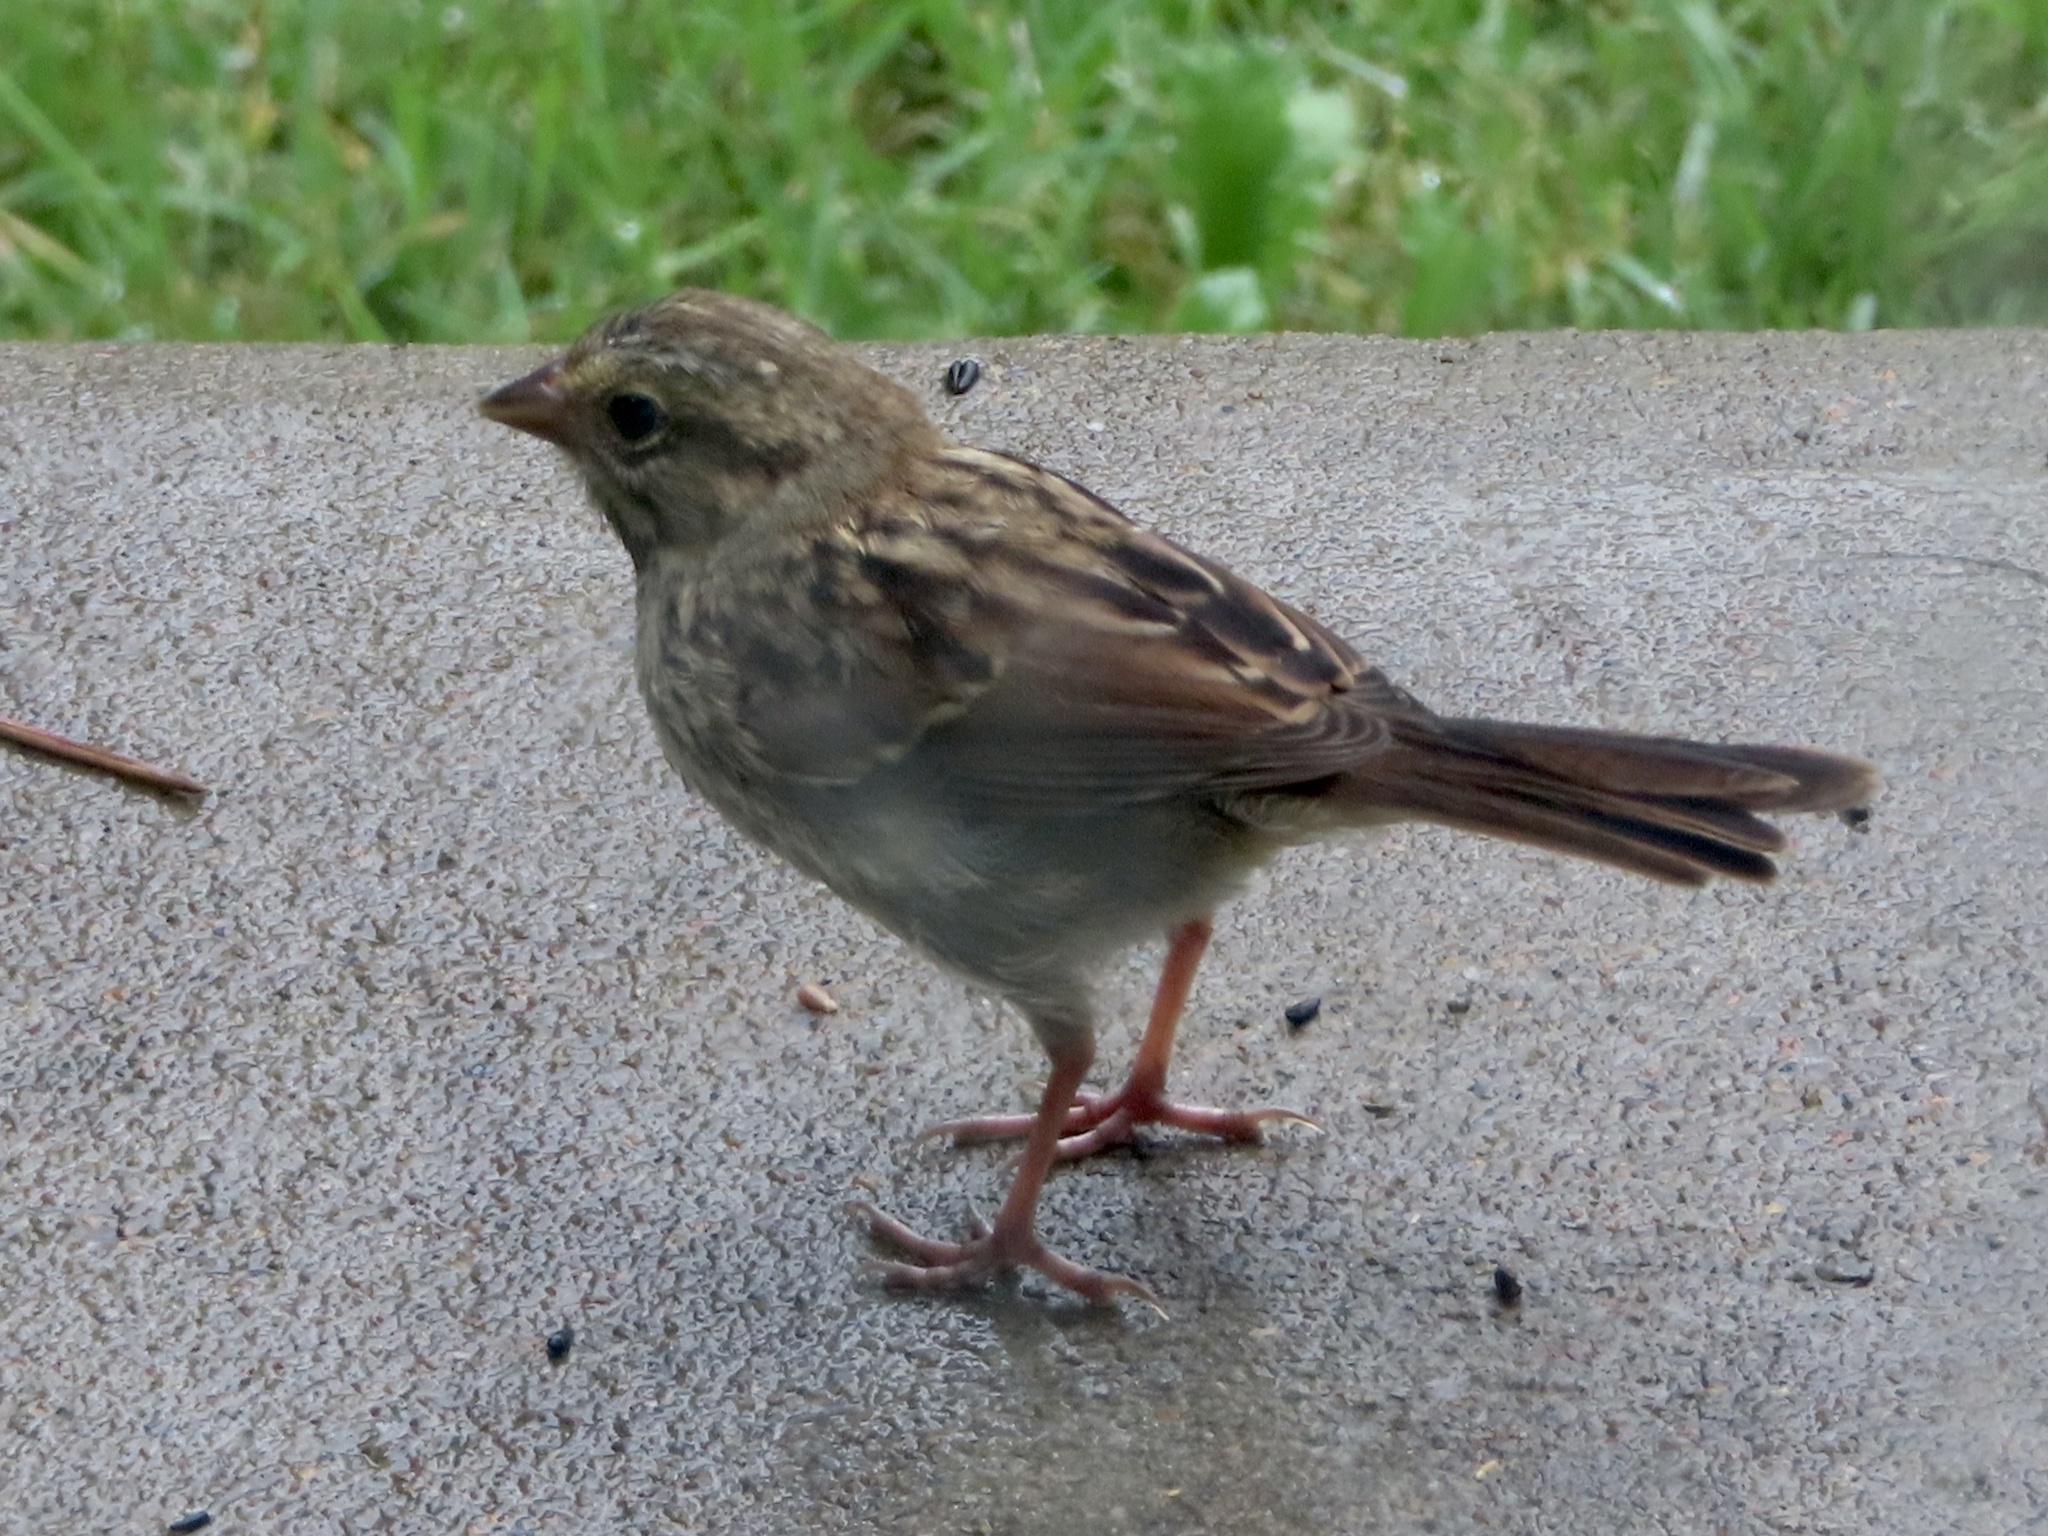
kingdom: Animalia
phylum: Chordata
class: Aves
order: Passeriformes
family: Passerellidae
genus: Melospiza
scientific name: Melospiza melodia
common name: Song sparrow
